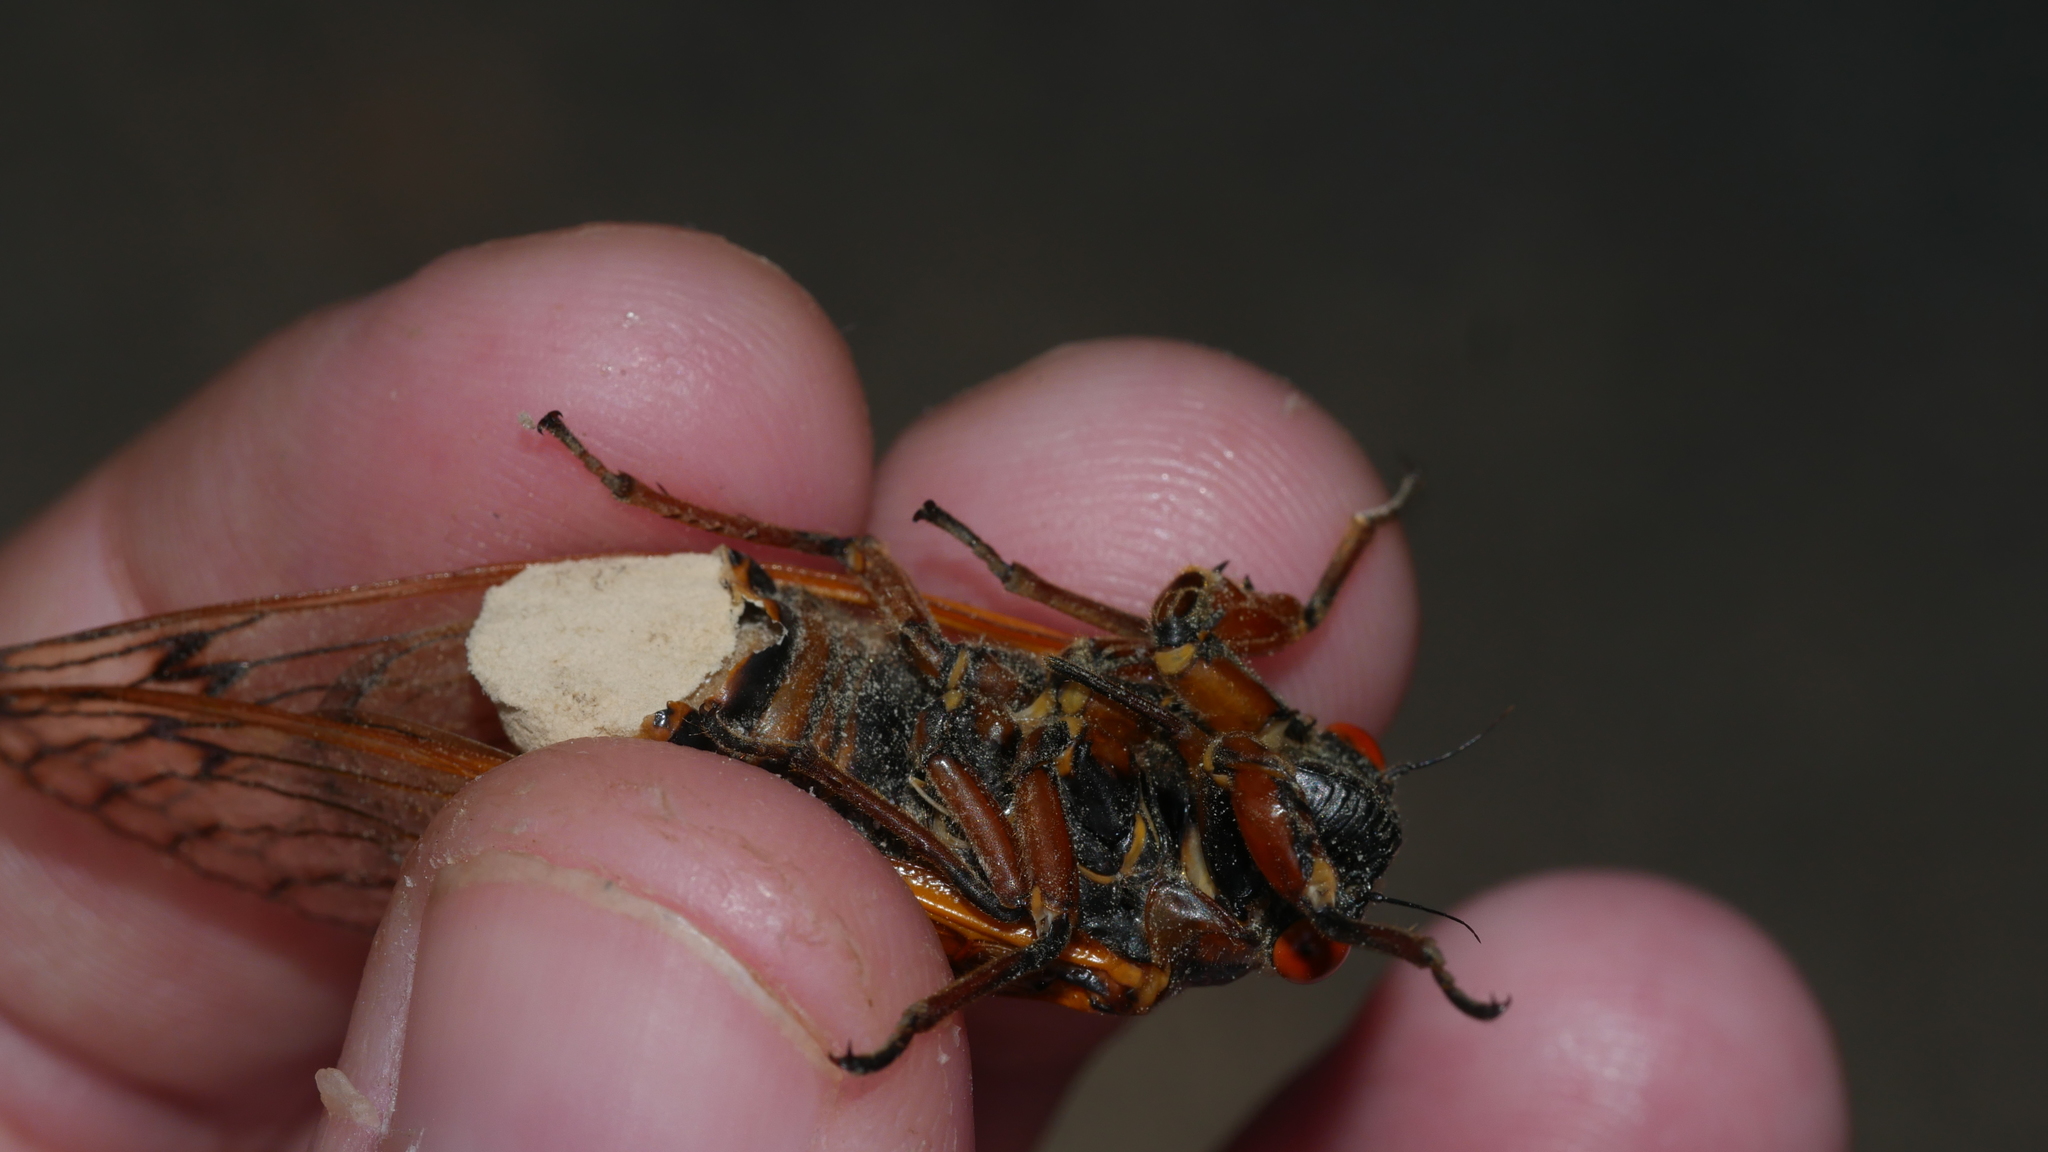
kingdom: Fungi
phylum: Entomophthoromycota
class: Entomophthoromycetes
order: Entomophthorales
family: Entomophthoraceae
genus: Massospora
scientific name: Massospora cicadina
